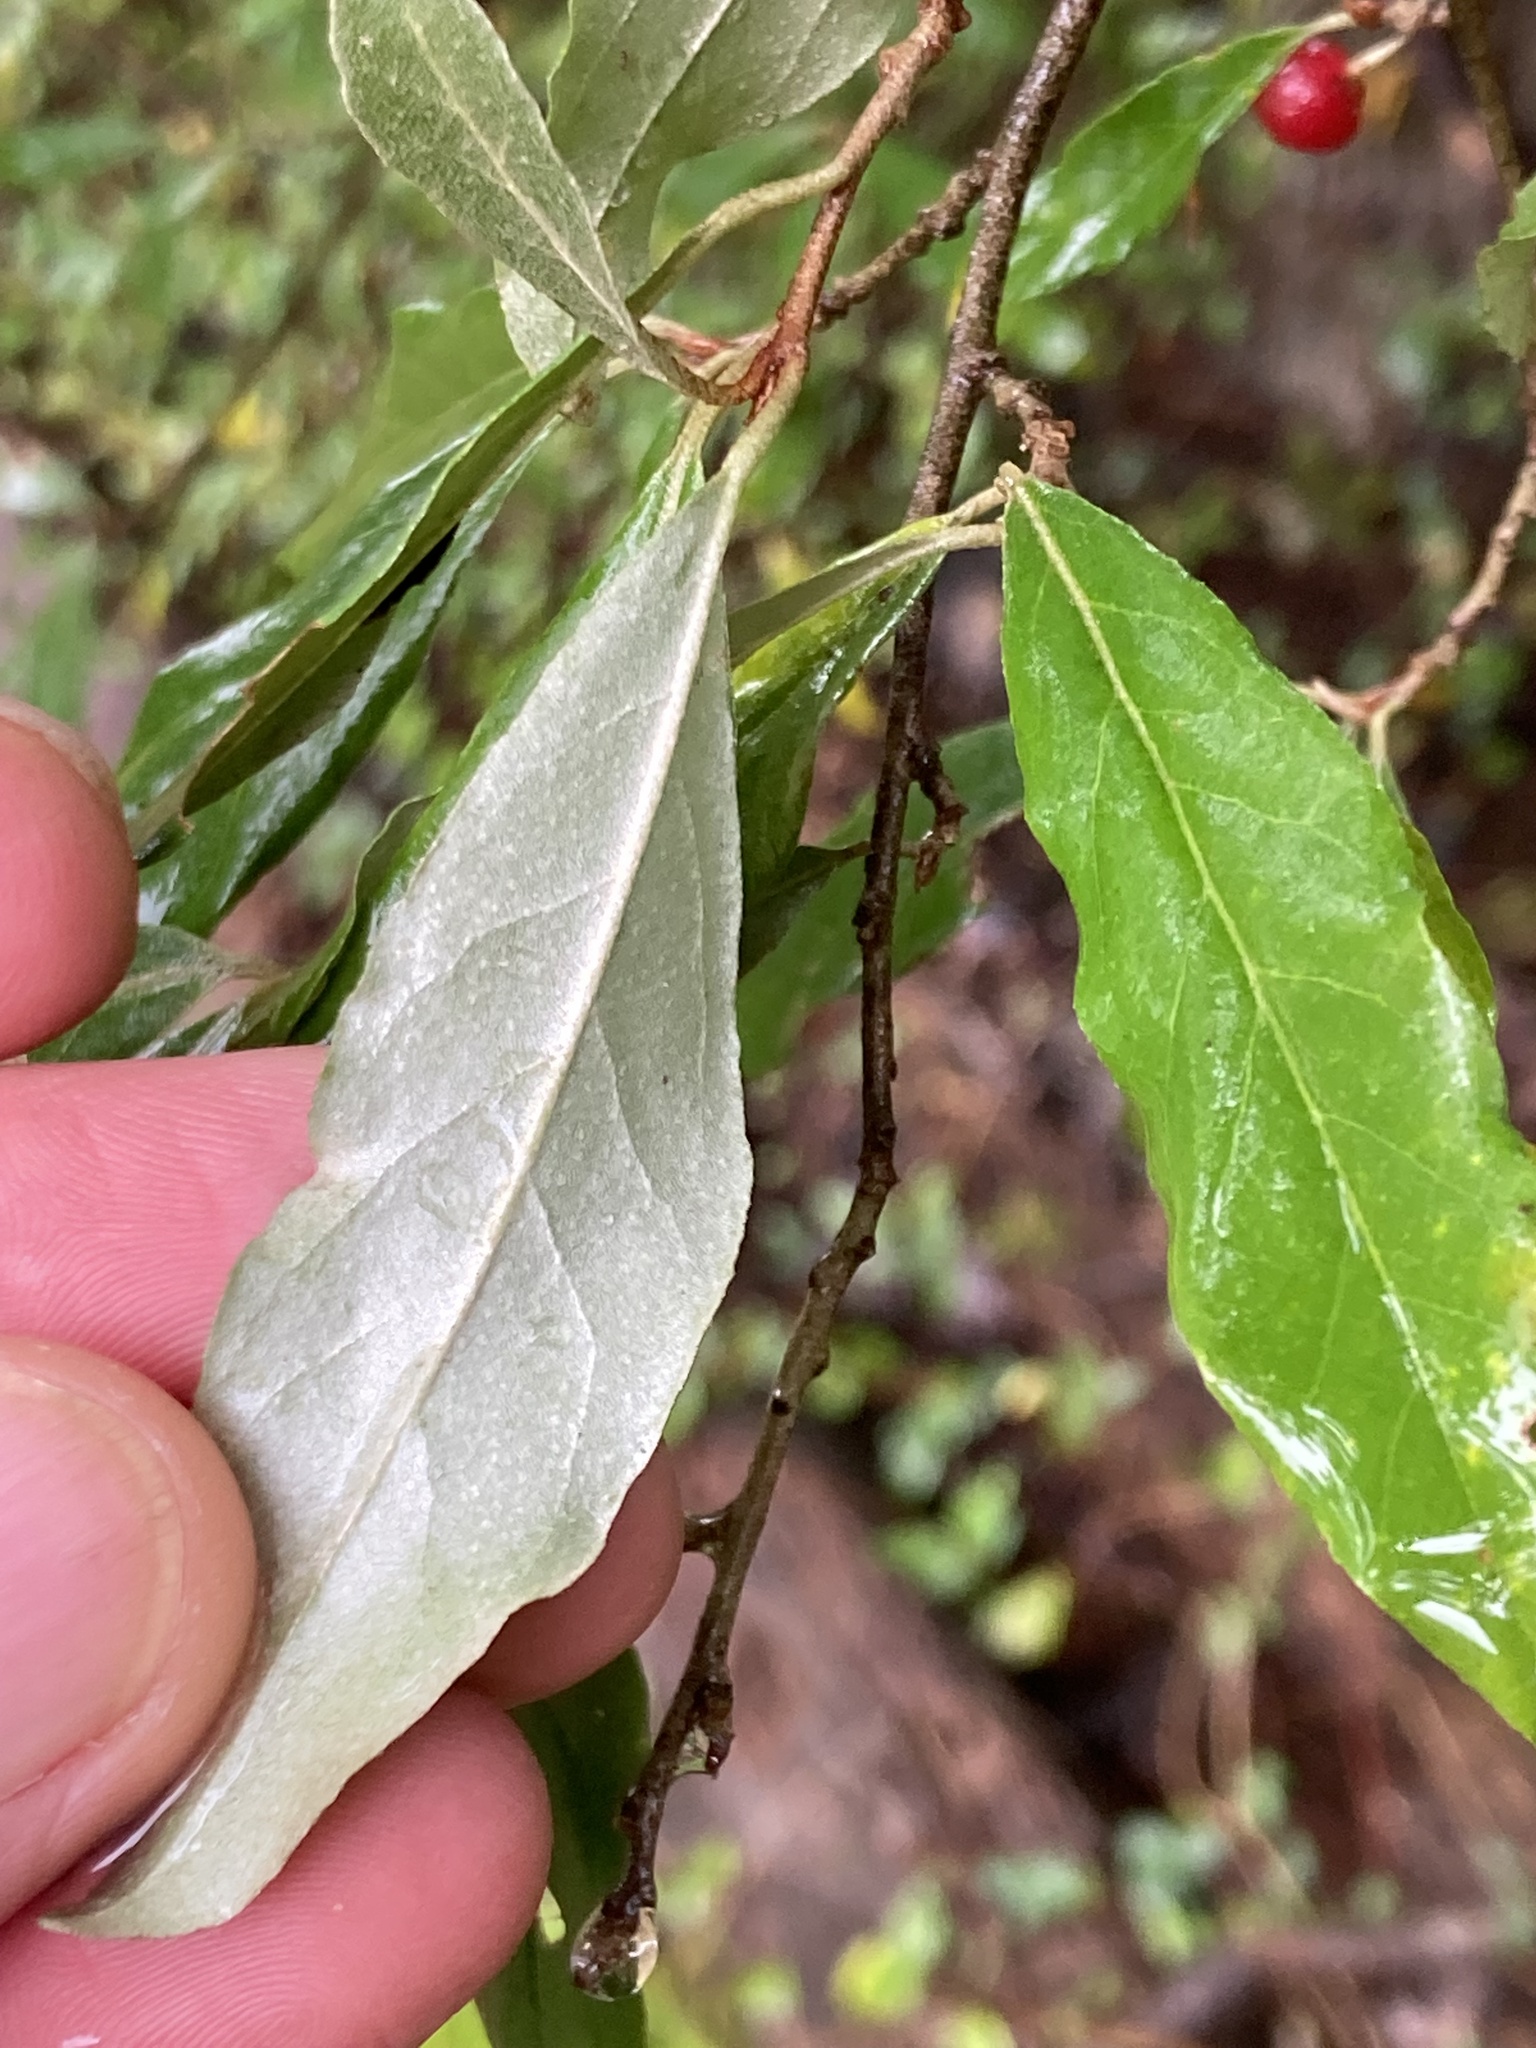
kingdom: Plantae
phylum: Tracheophyta
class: Magnoliopsida
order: Rosales
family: Elaeagnaceae
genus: Elaeagnus
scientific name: Elaeagnus umbellata
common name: Autumn olive
